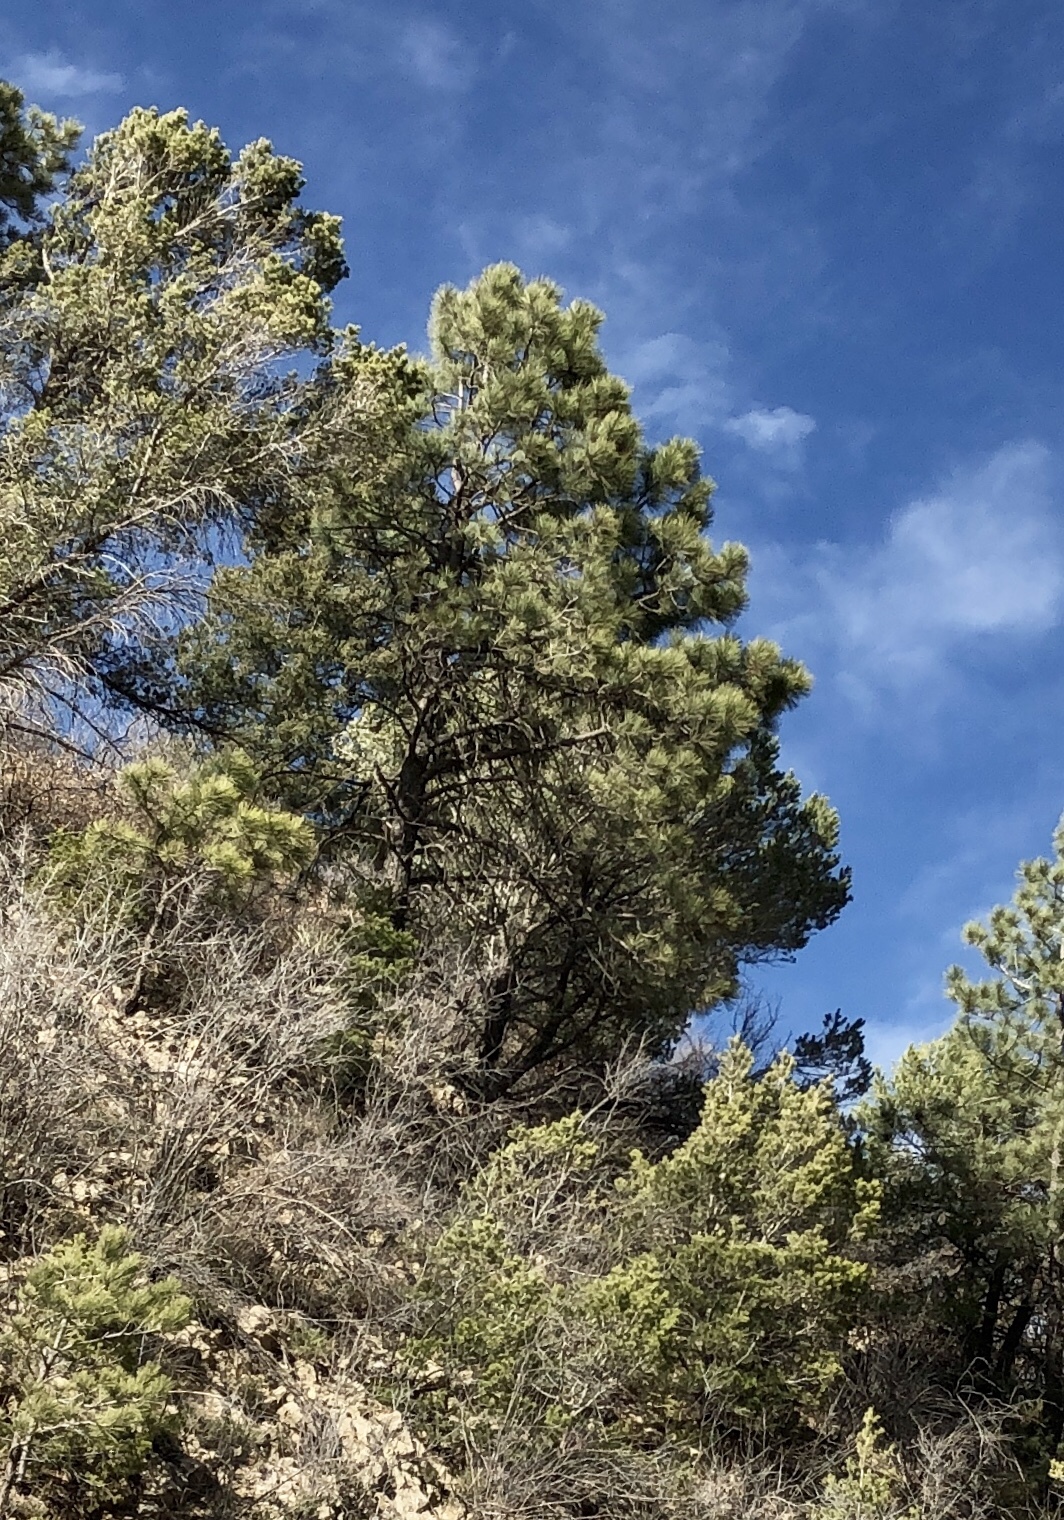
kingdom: Plantae
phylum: Tracheophyta
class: Pinopsida
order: Pinales
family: Pinaceae
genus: Pinus
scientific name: Pinus ponderosa
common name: Western yellow-pine
